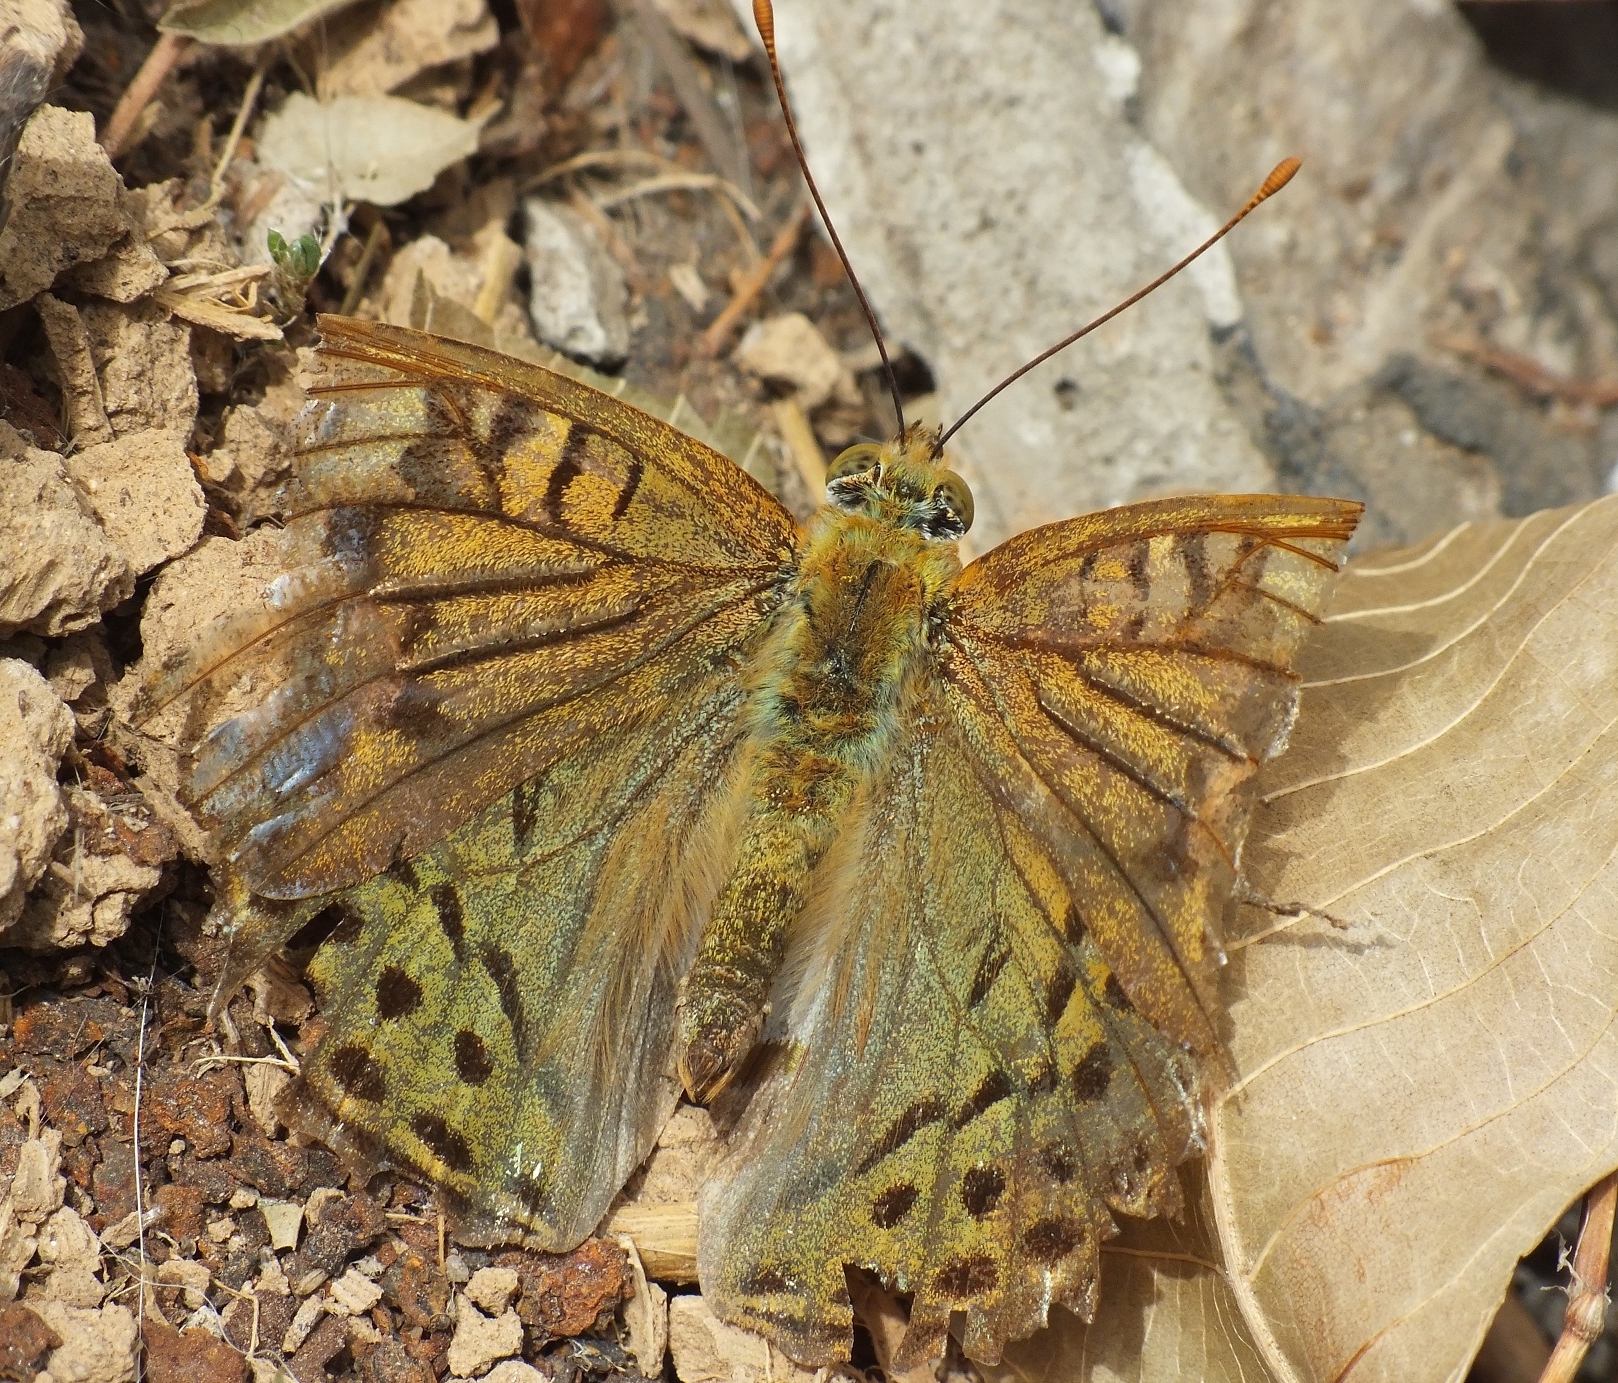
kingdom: Animalia
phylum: Arthropoda
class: Insecta
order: Lepidoptera
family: Nymphalidae
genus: Damora
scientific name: Damora pandora
